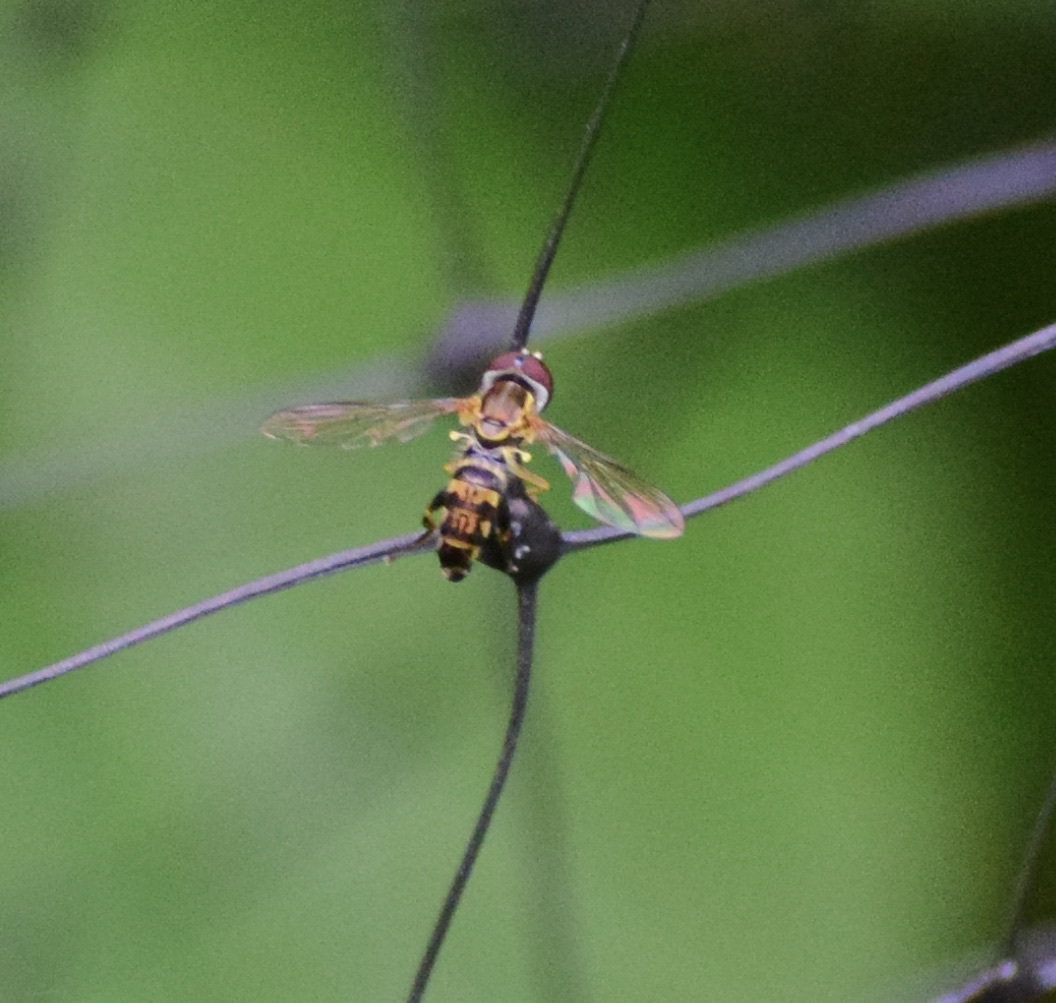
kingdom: Animalia
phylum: Arthropoda
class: Insecta
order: Diptera
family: Syrphidae
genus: Toxomerus
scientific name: Toxomerus geminatus
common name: Eastern calligrapher
